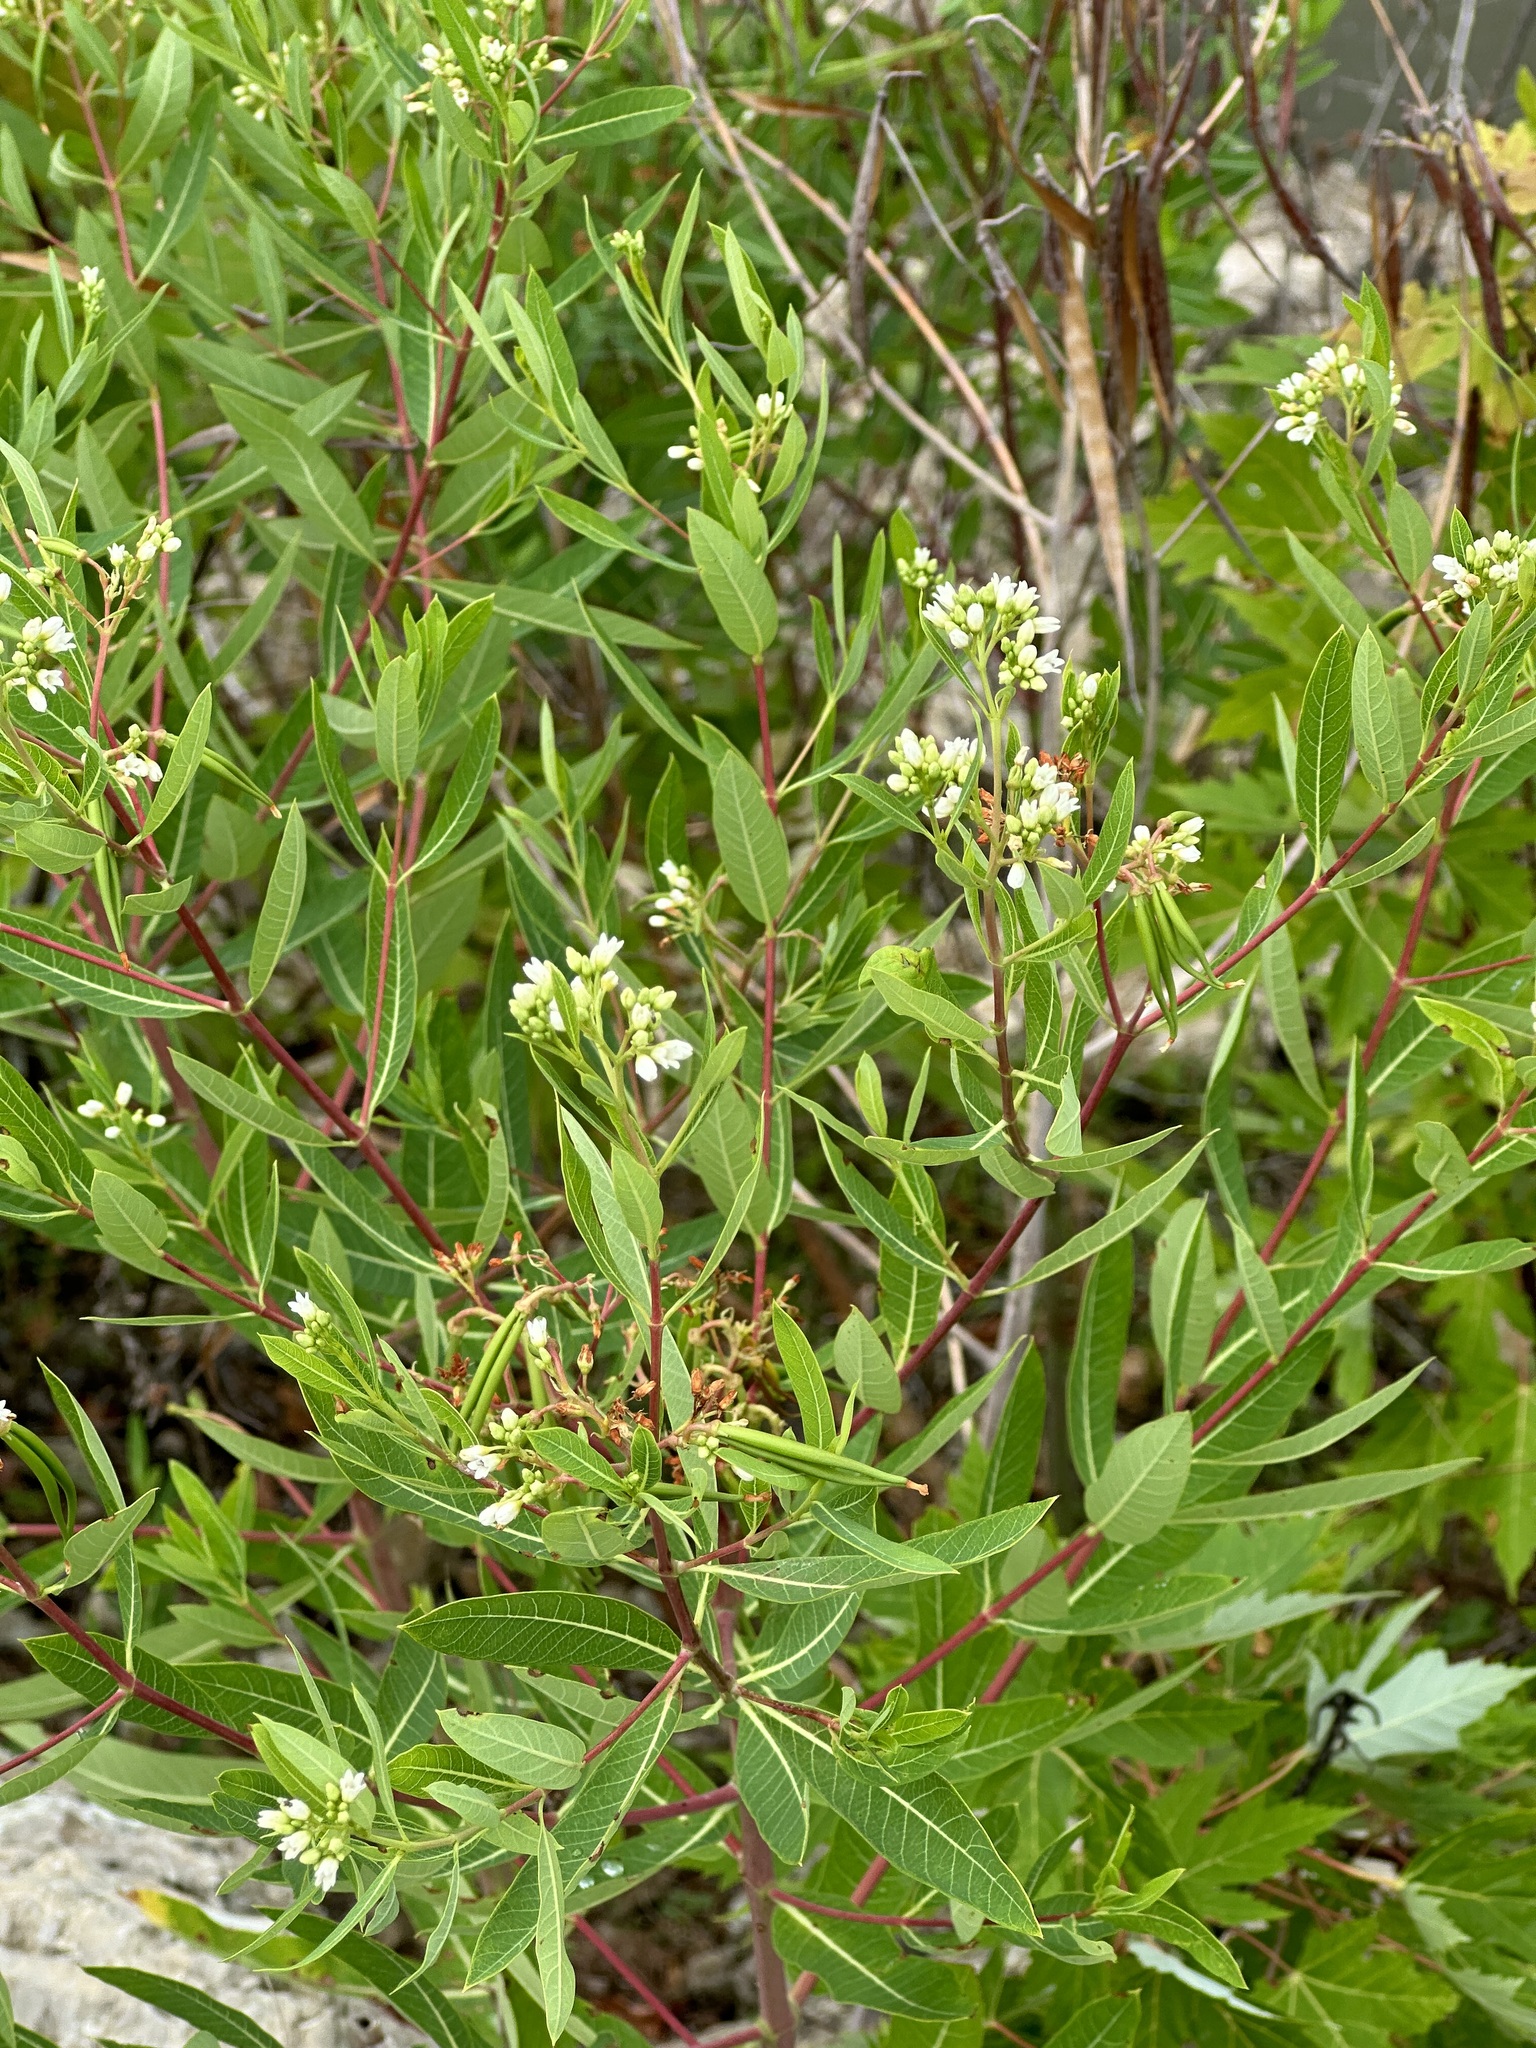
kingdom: Plantae
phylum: Tracheophyta
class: Magnoliopsida
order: Gentianales
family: Apocynaceae
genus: Apocynum
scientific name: Apocynum cannabinum
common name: Hemp dogbane
